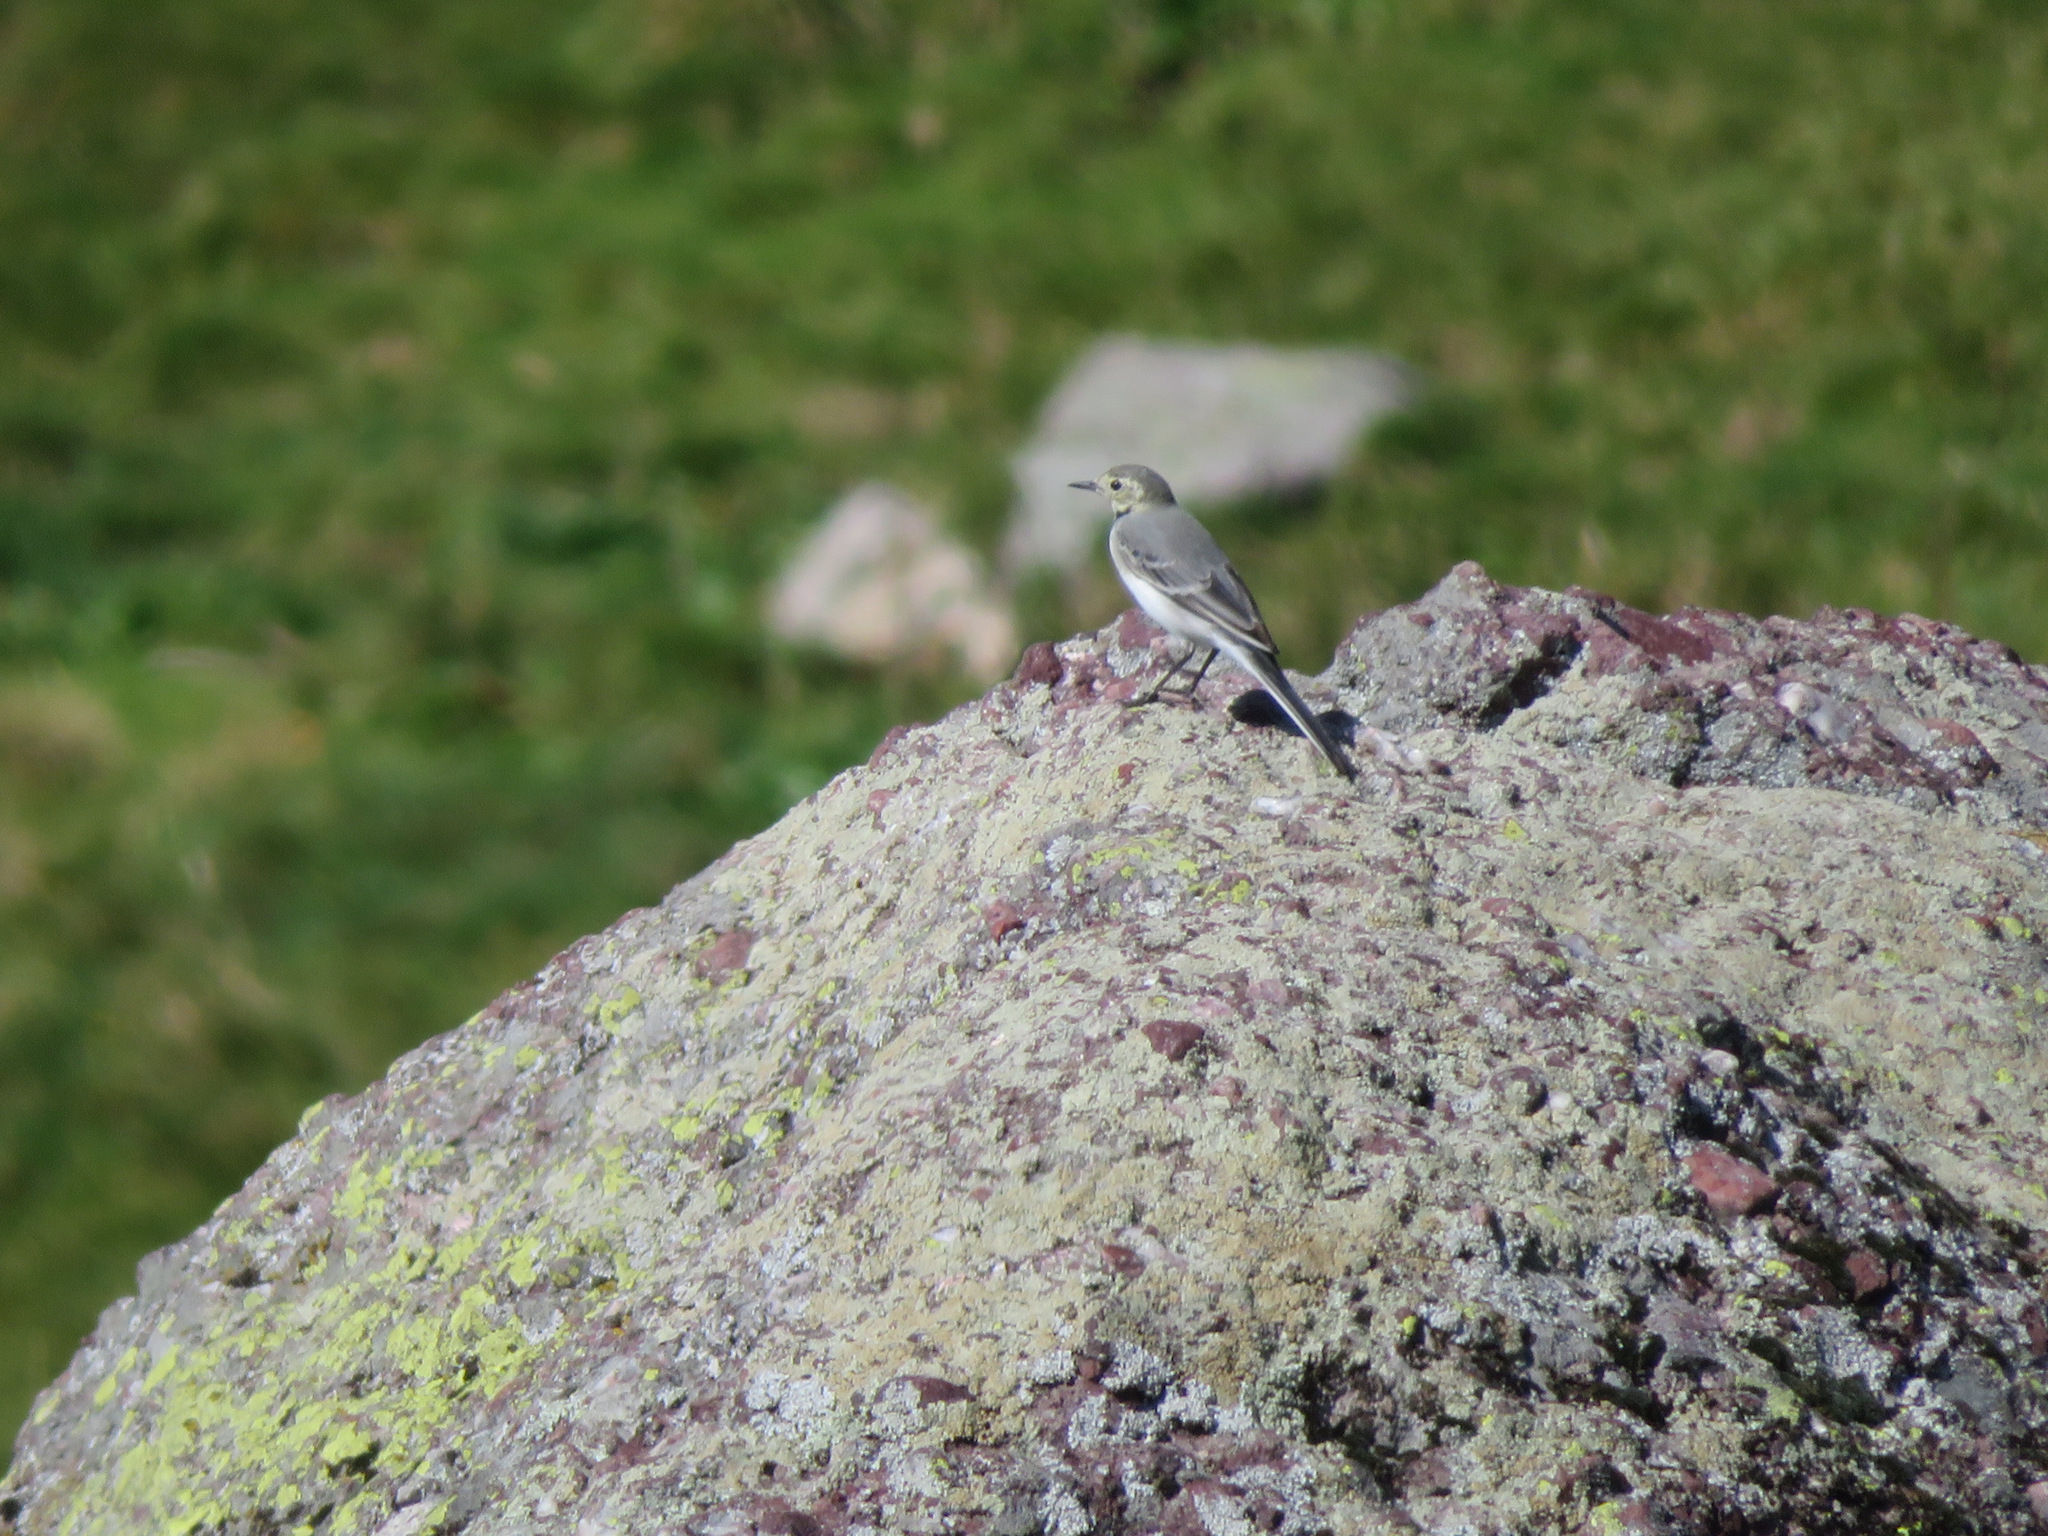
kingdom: Animalia
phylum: Chordata
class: Aves
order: Passeriformes
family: Motacillidae
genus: Motacilla
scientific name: Motacilla alba
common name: White wagtail
